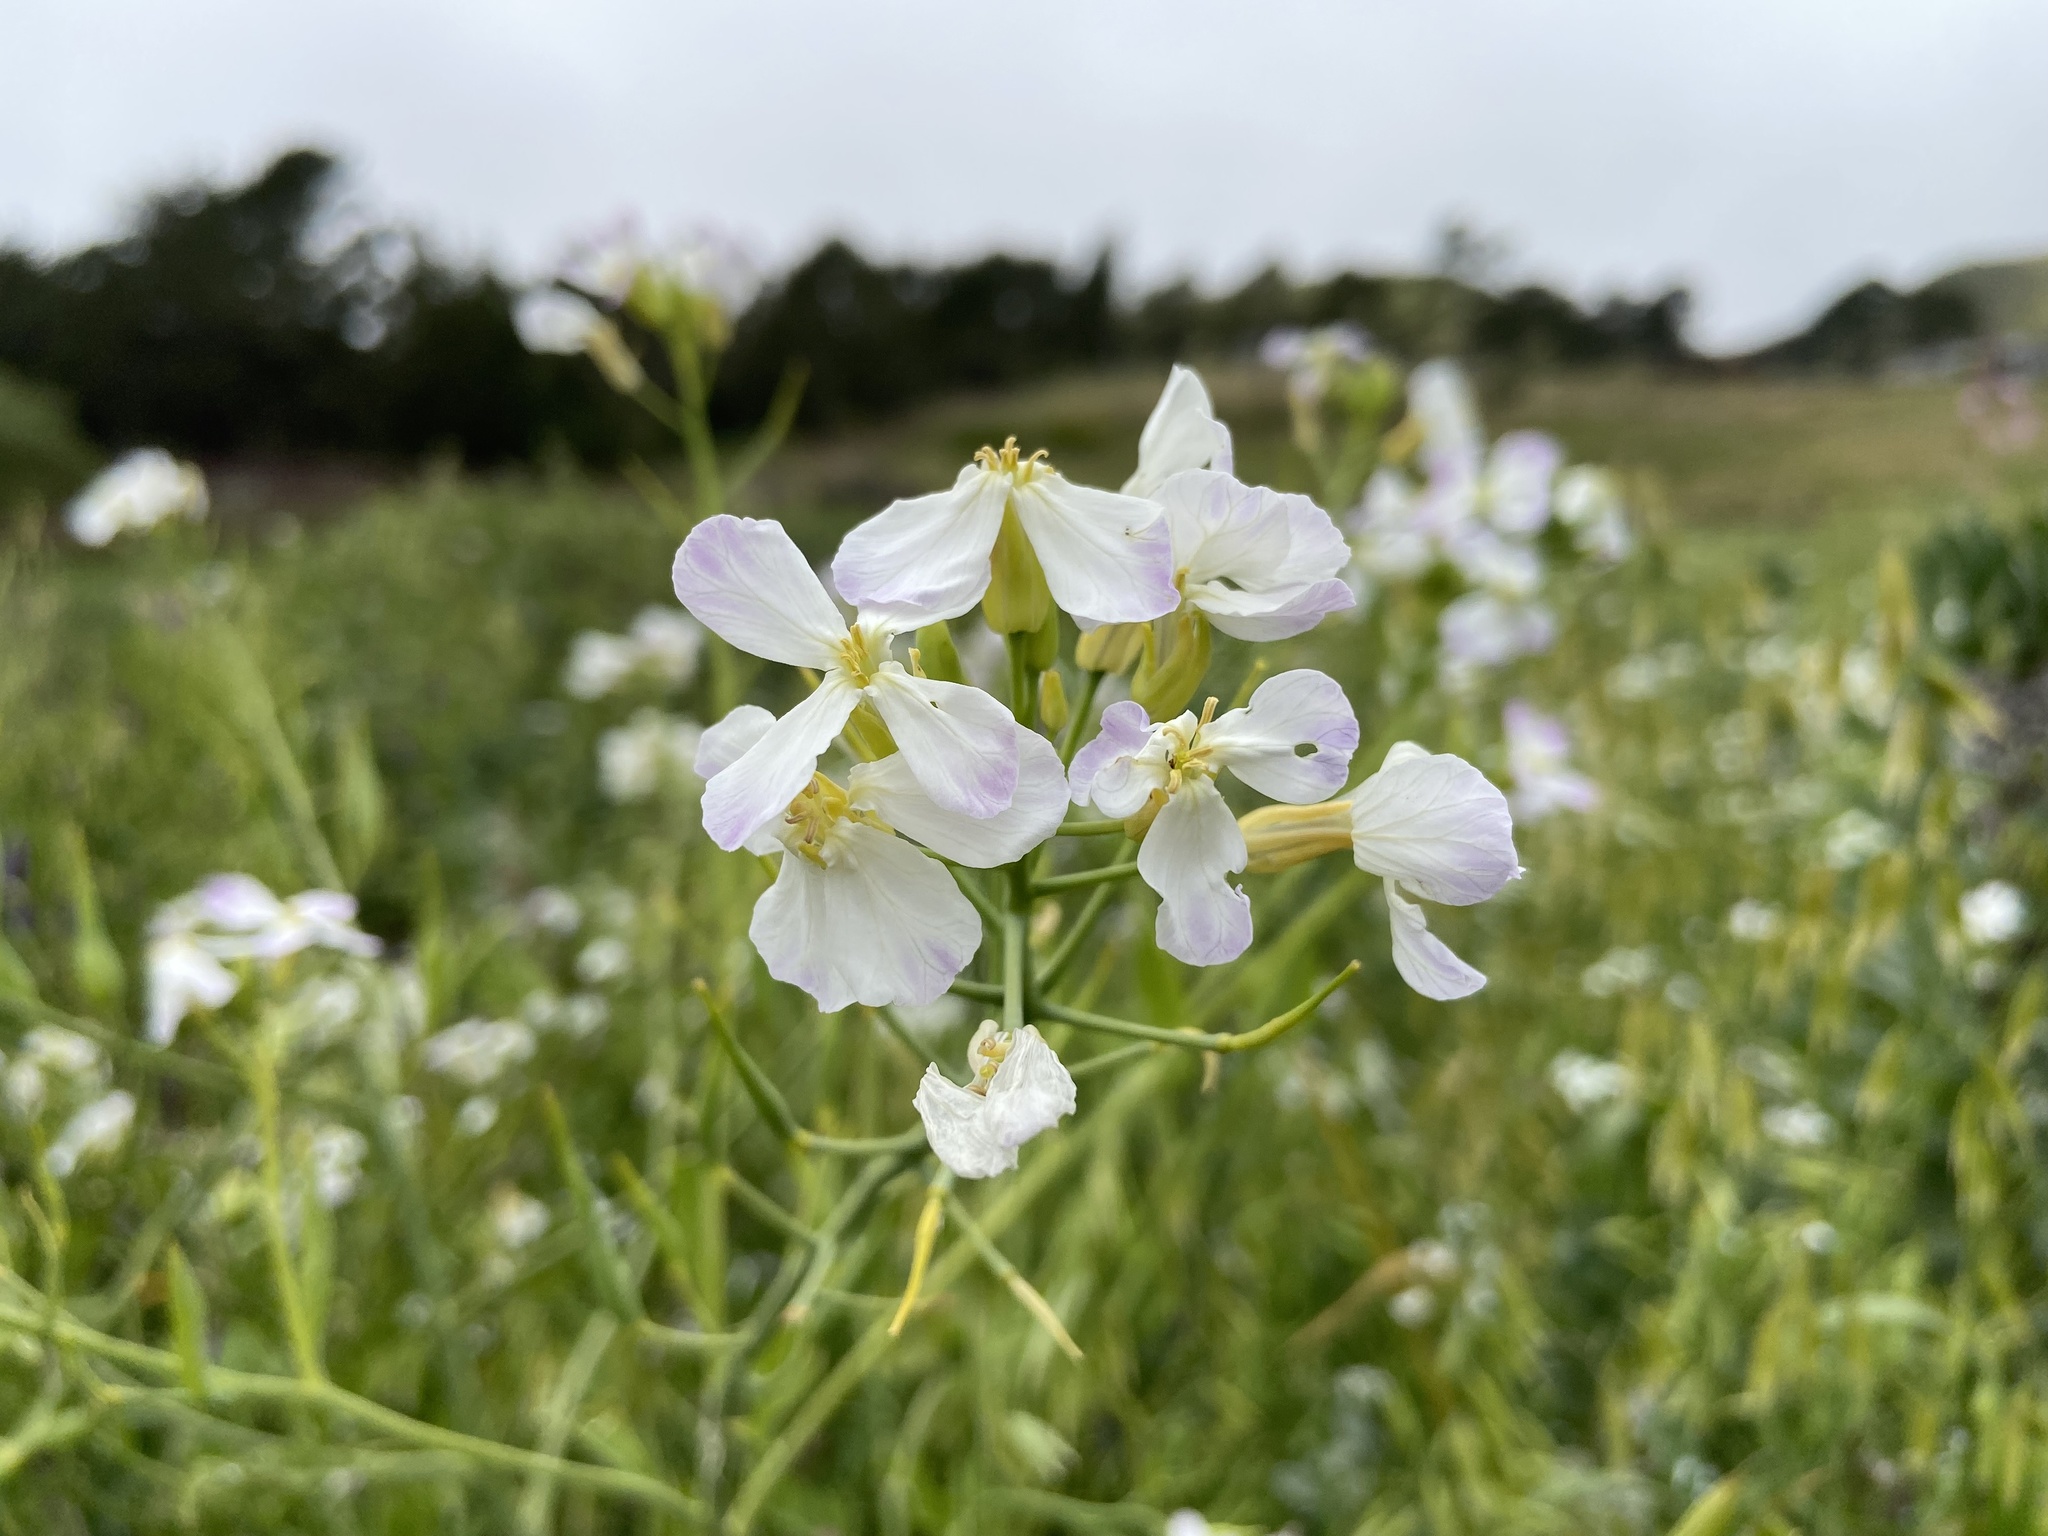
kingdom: Plantae
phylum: Tracheophyta
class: Magnoliopsida
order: Brassicales
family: Brassicaceae
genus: Raphanus
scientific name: Raphanus sativus
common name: Cultivated radish
